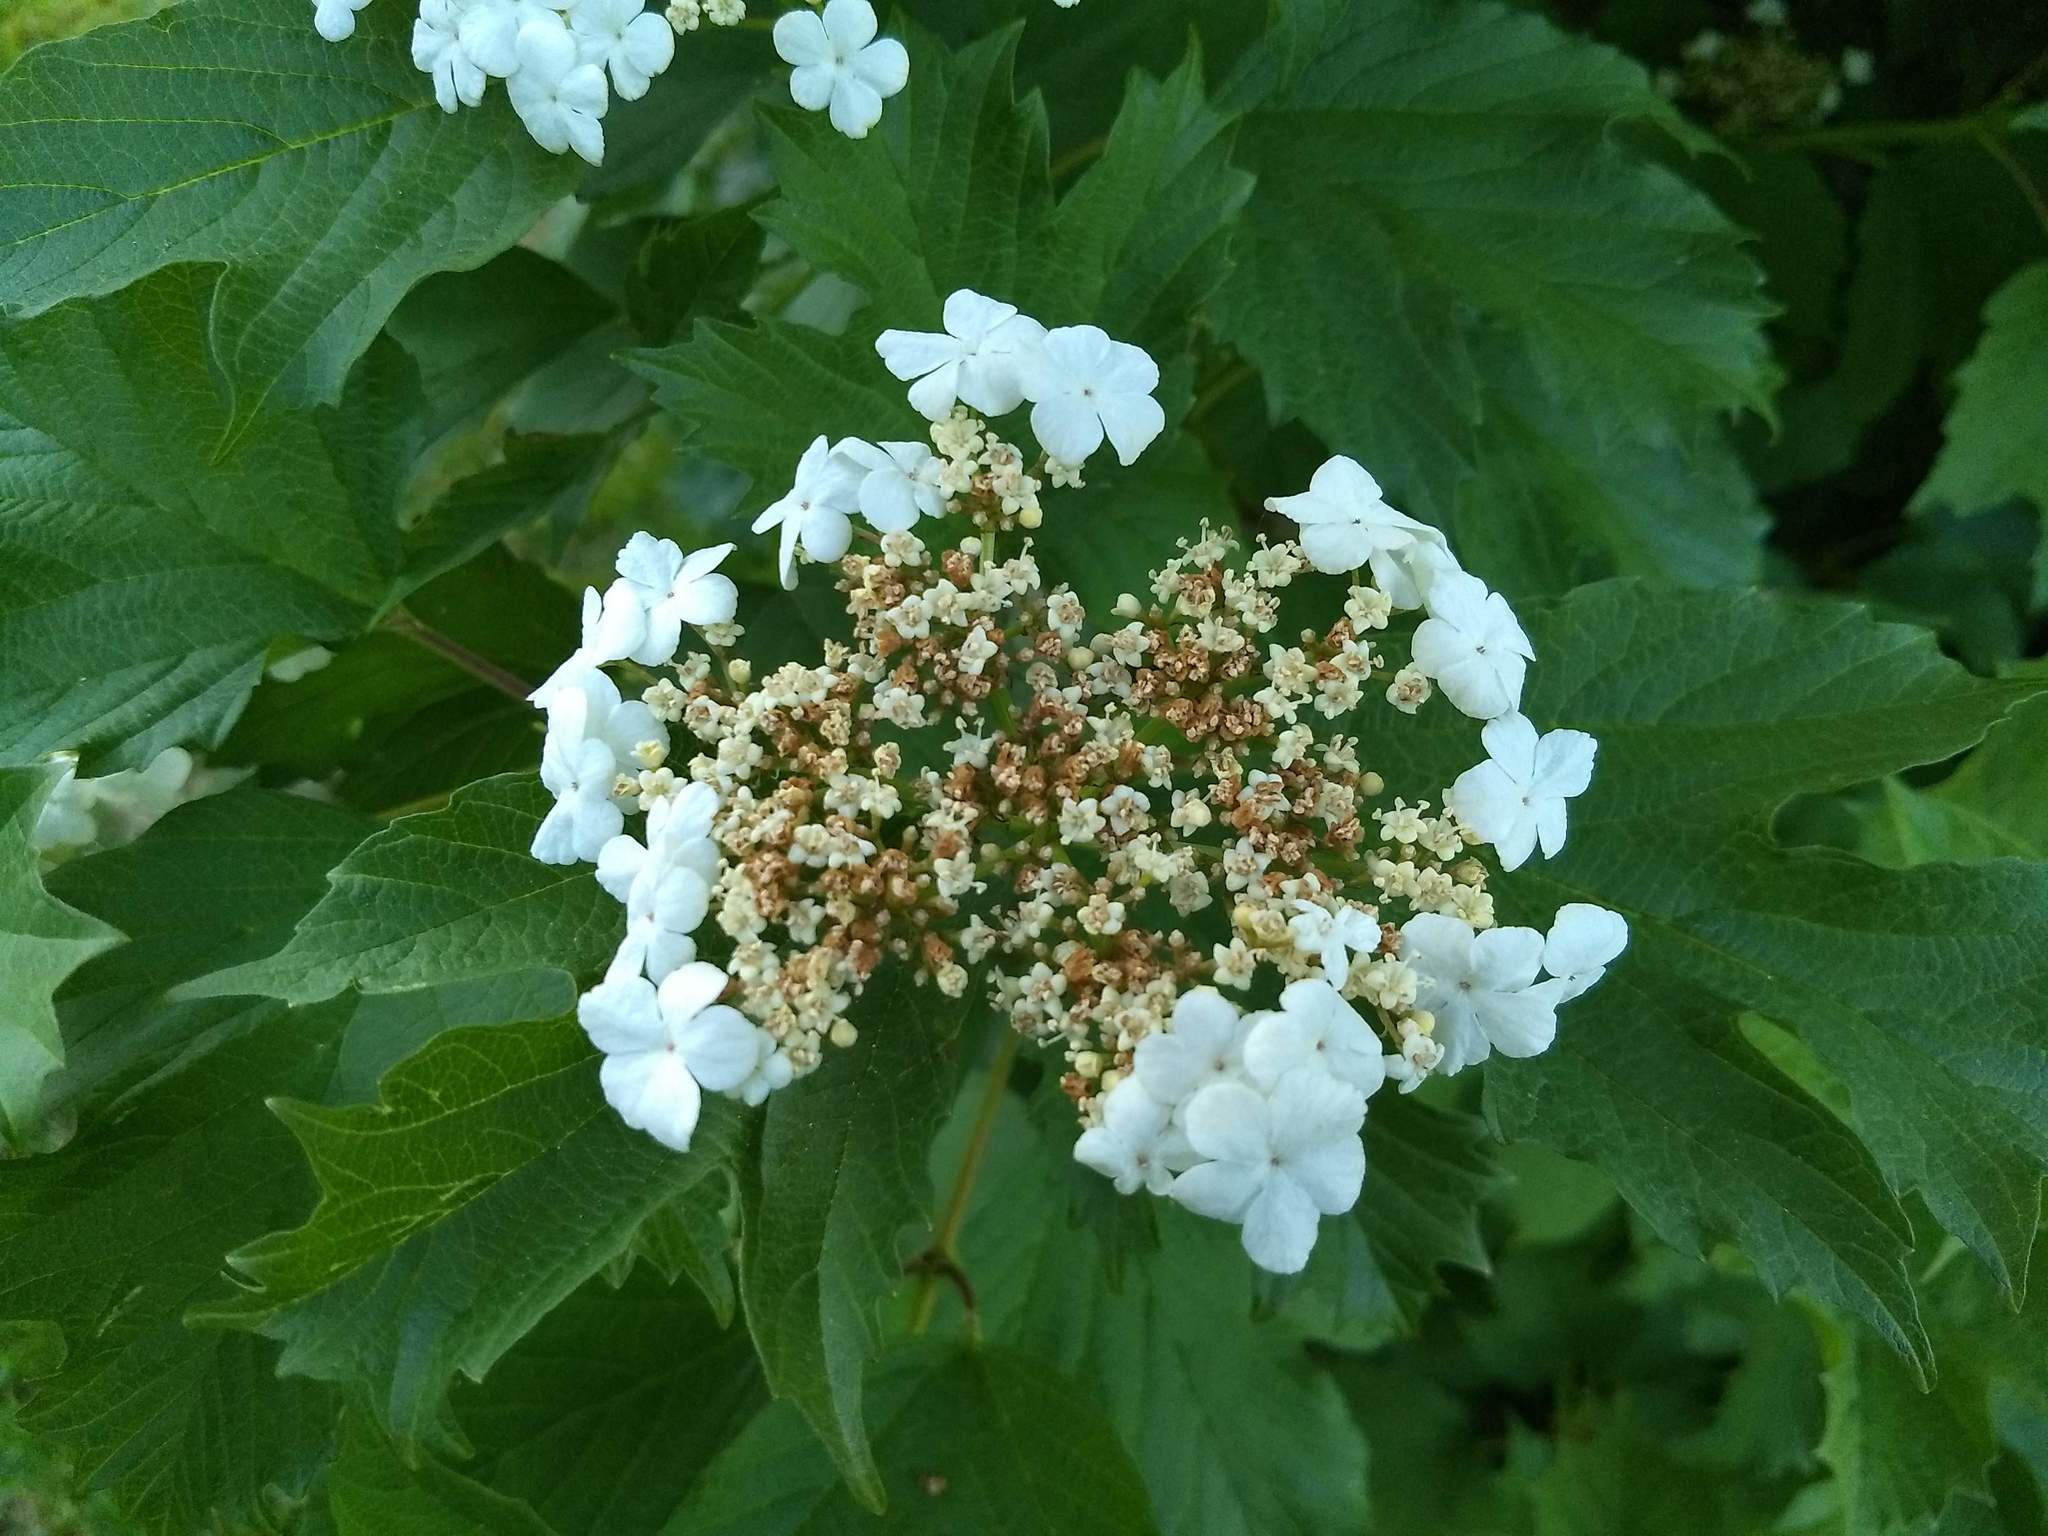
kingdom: Plantae
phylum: Tracheophyta
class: Magnoliopsida
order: Dipsacales
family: Viburnaceae
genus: Viburnum
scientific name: Viburnum opulus
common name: Guelder-rose
